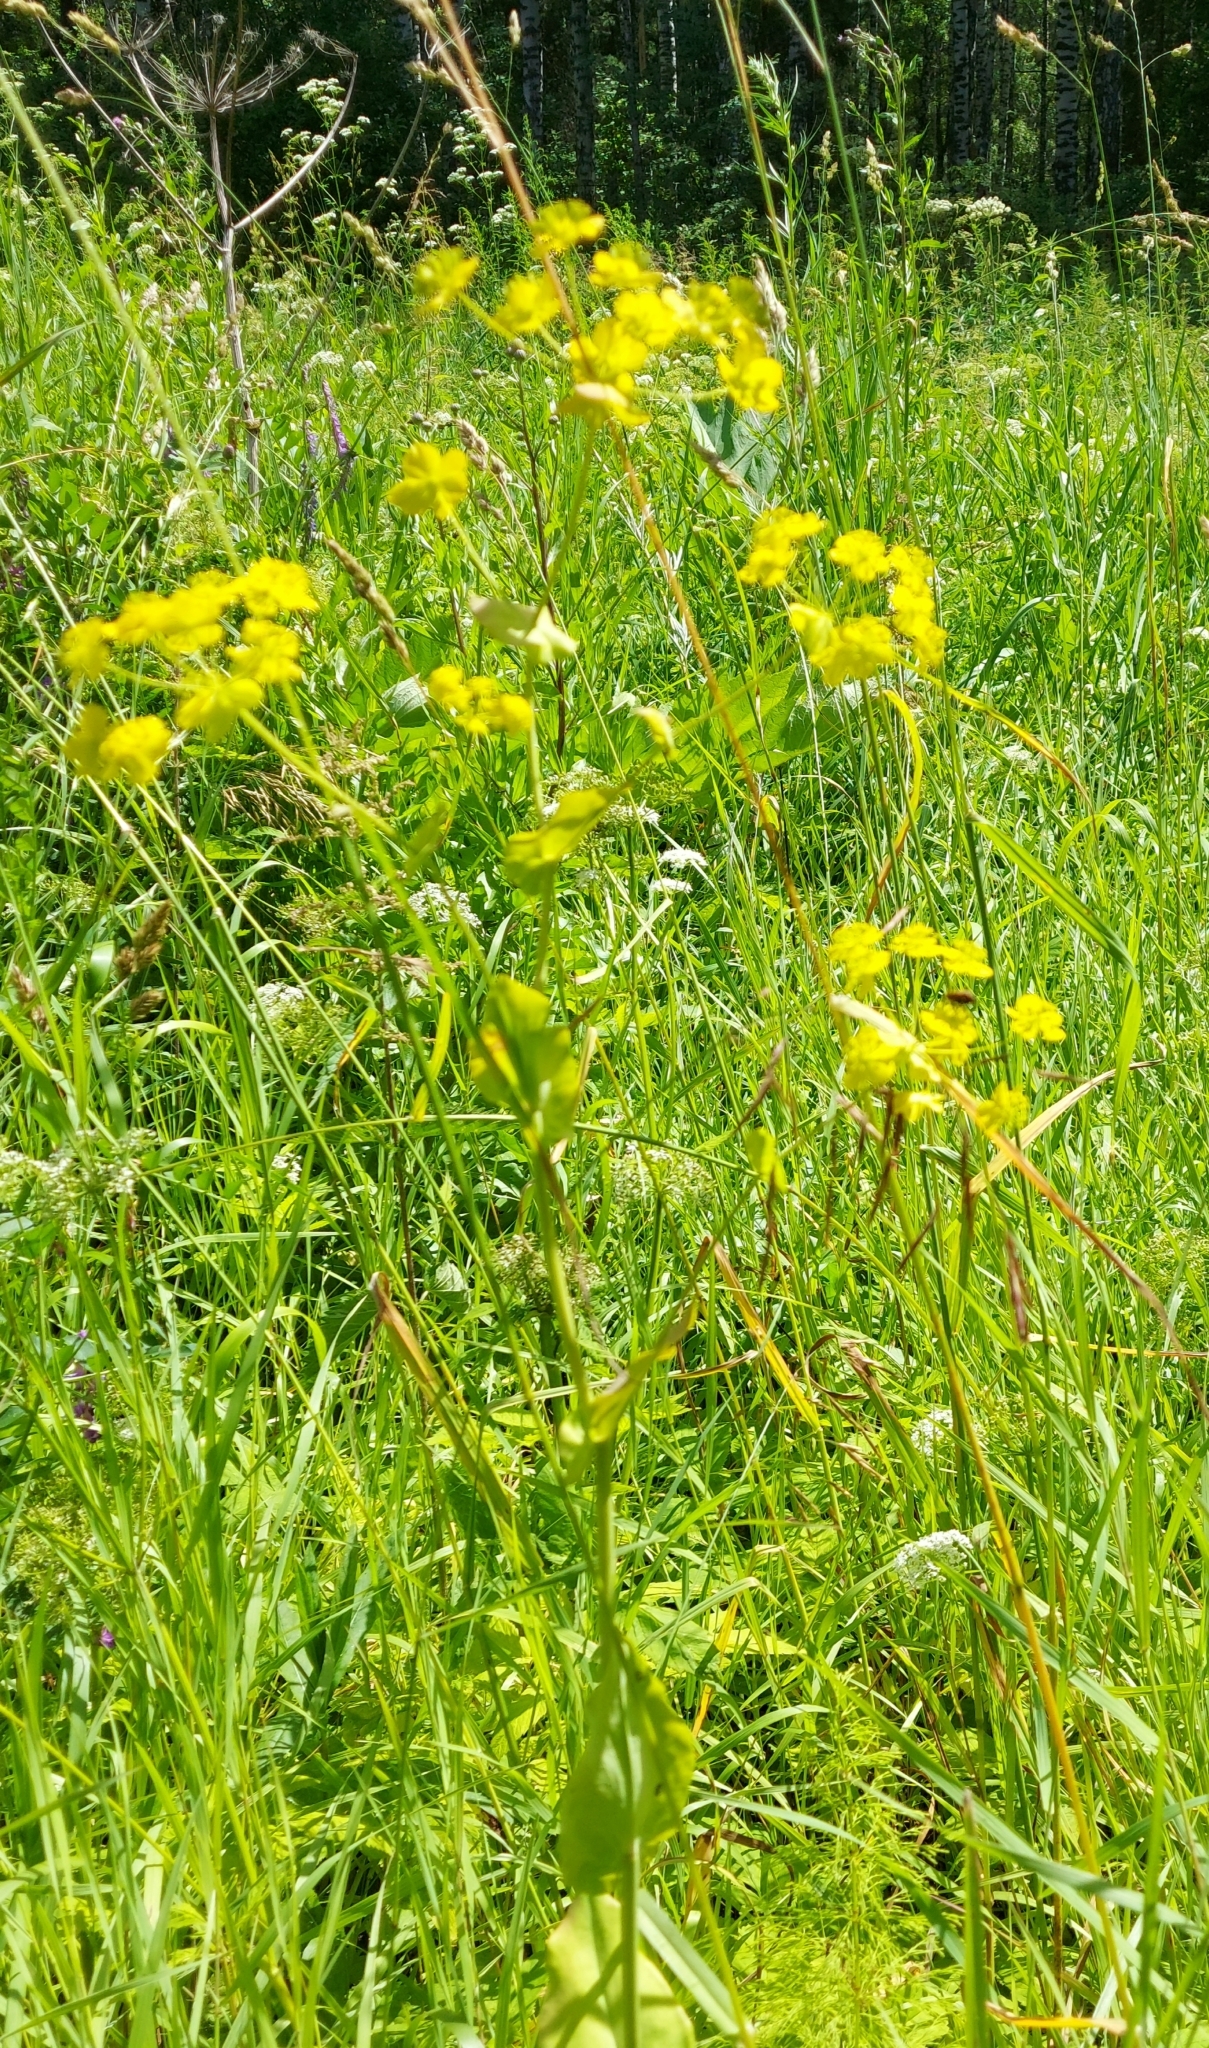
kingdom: Plantae
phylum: Tracheophyta
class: Magnoliopsida
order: Apiales
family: Apiaceae
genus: Bupleurum
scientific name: Bupleurum aureum
